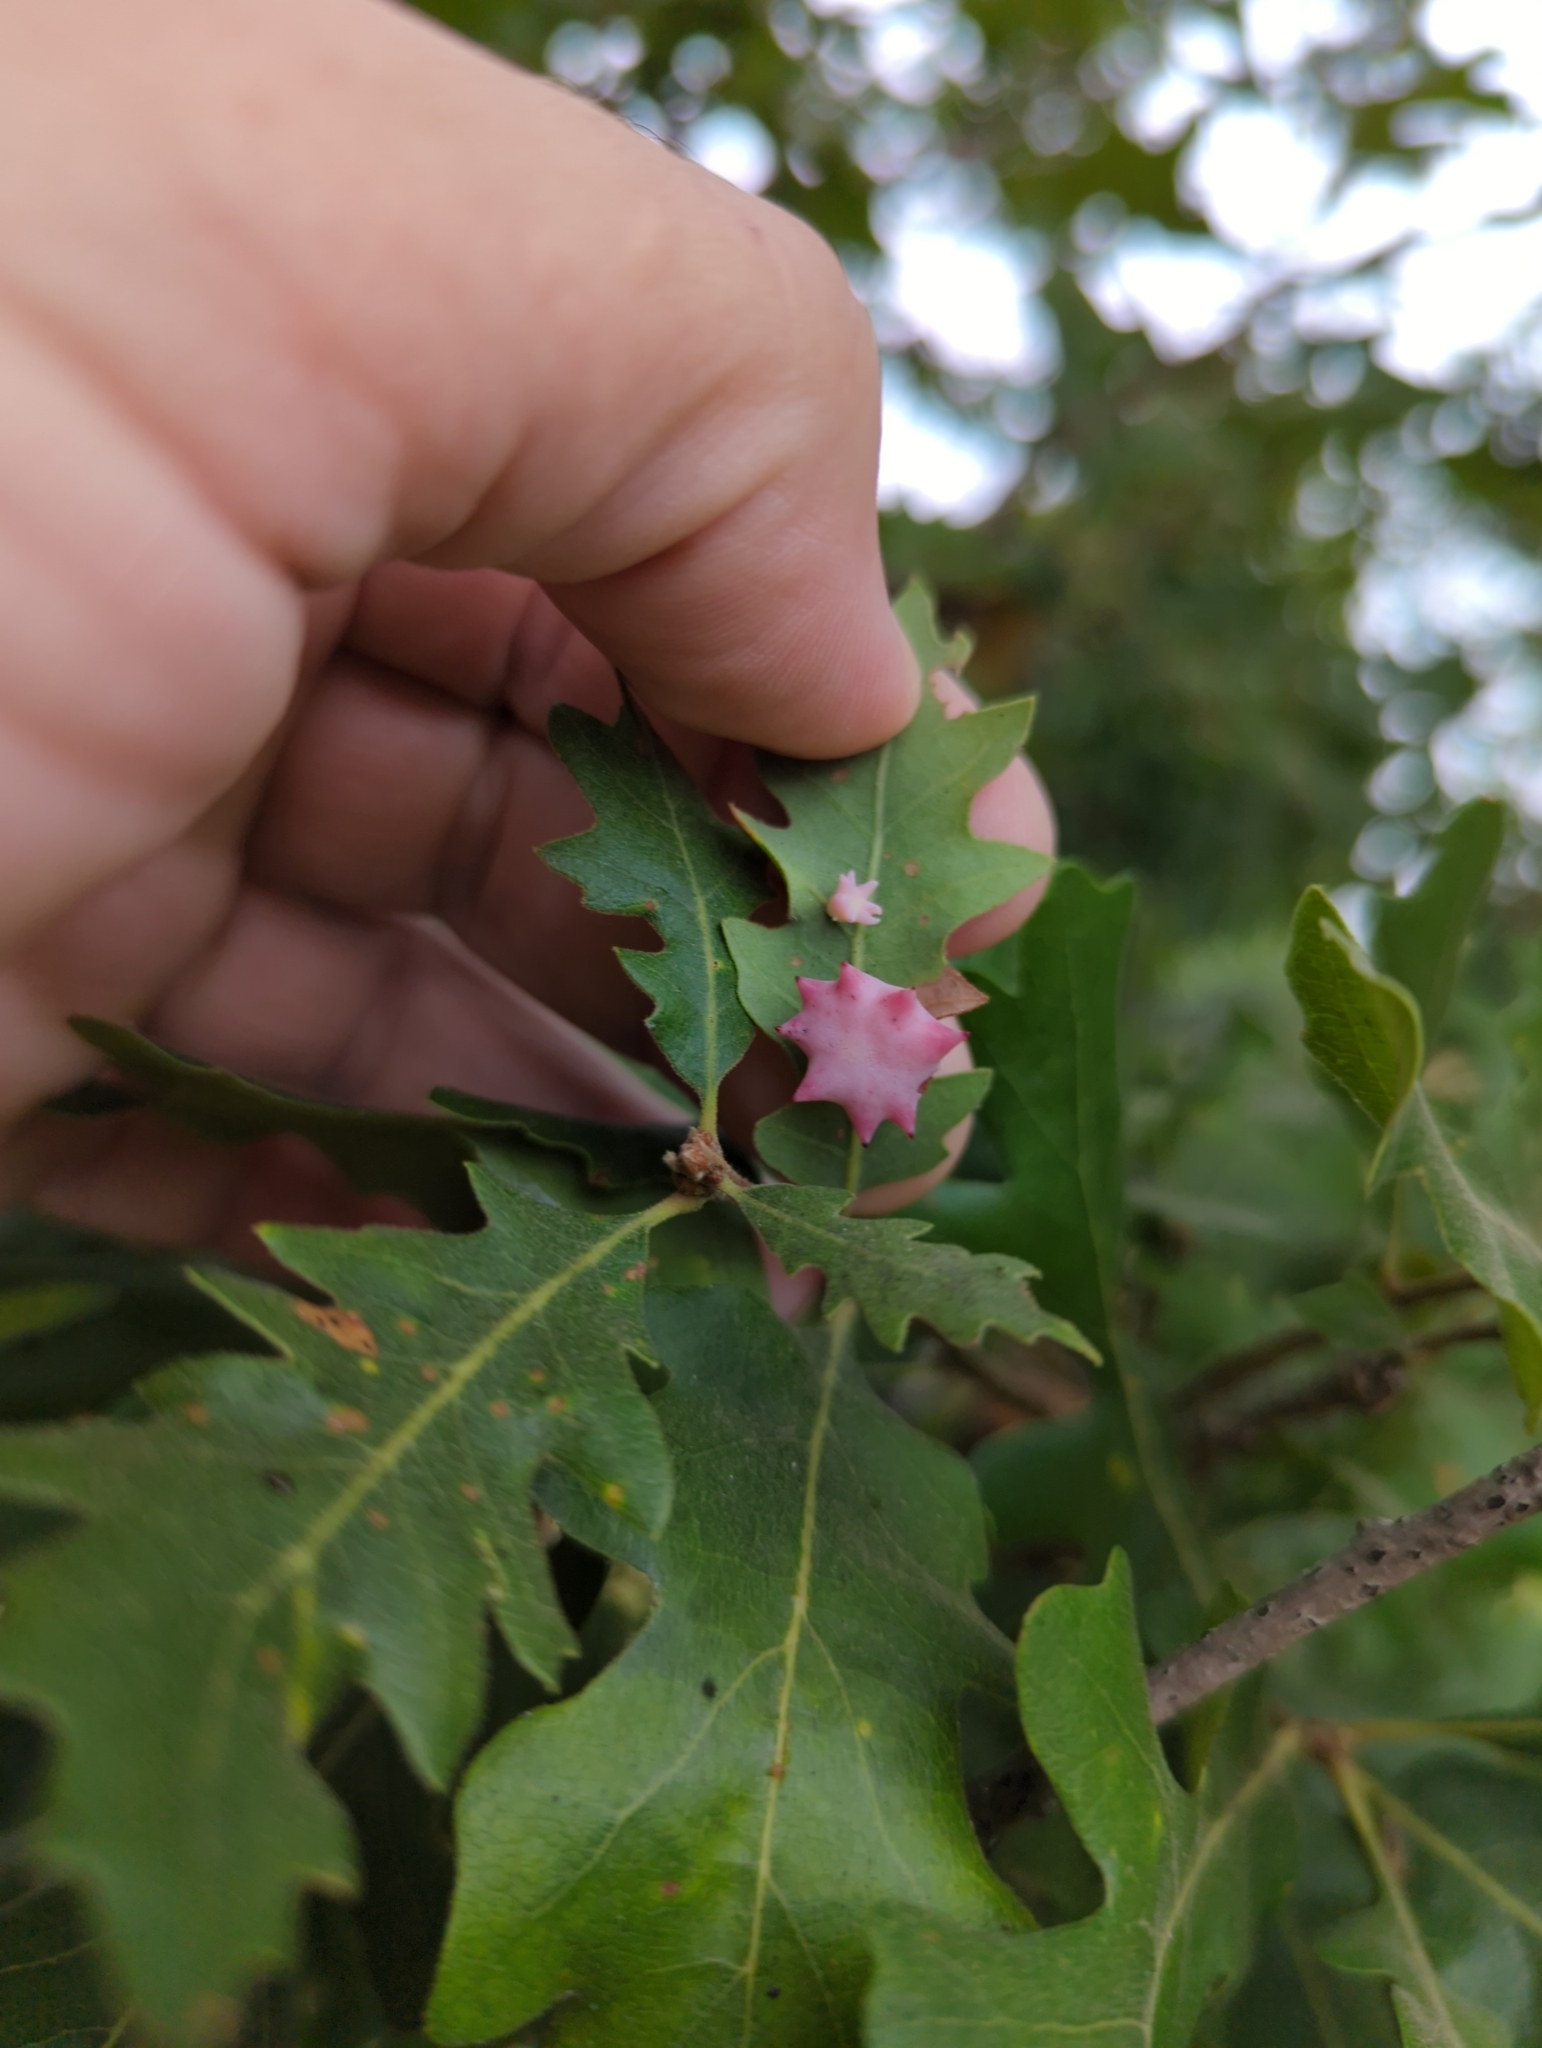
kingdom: Animalia
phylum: Arthropoda
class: Insecta
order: Hymenoptera
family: Cynipidae
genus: Cynips
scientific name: Cynips douglasi
